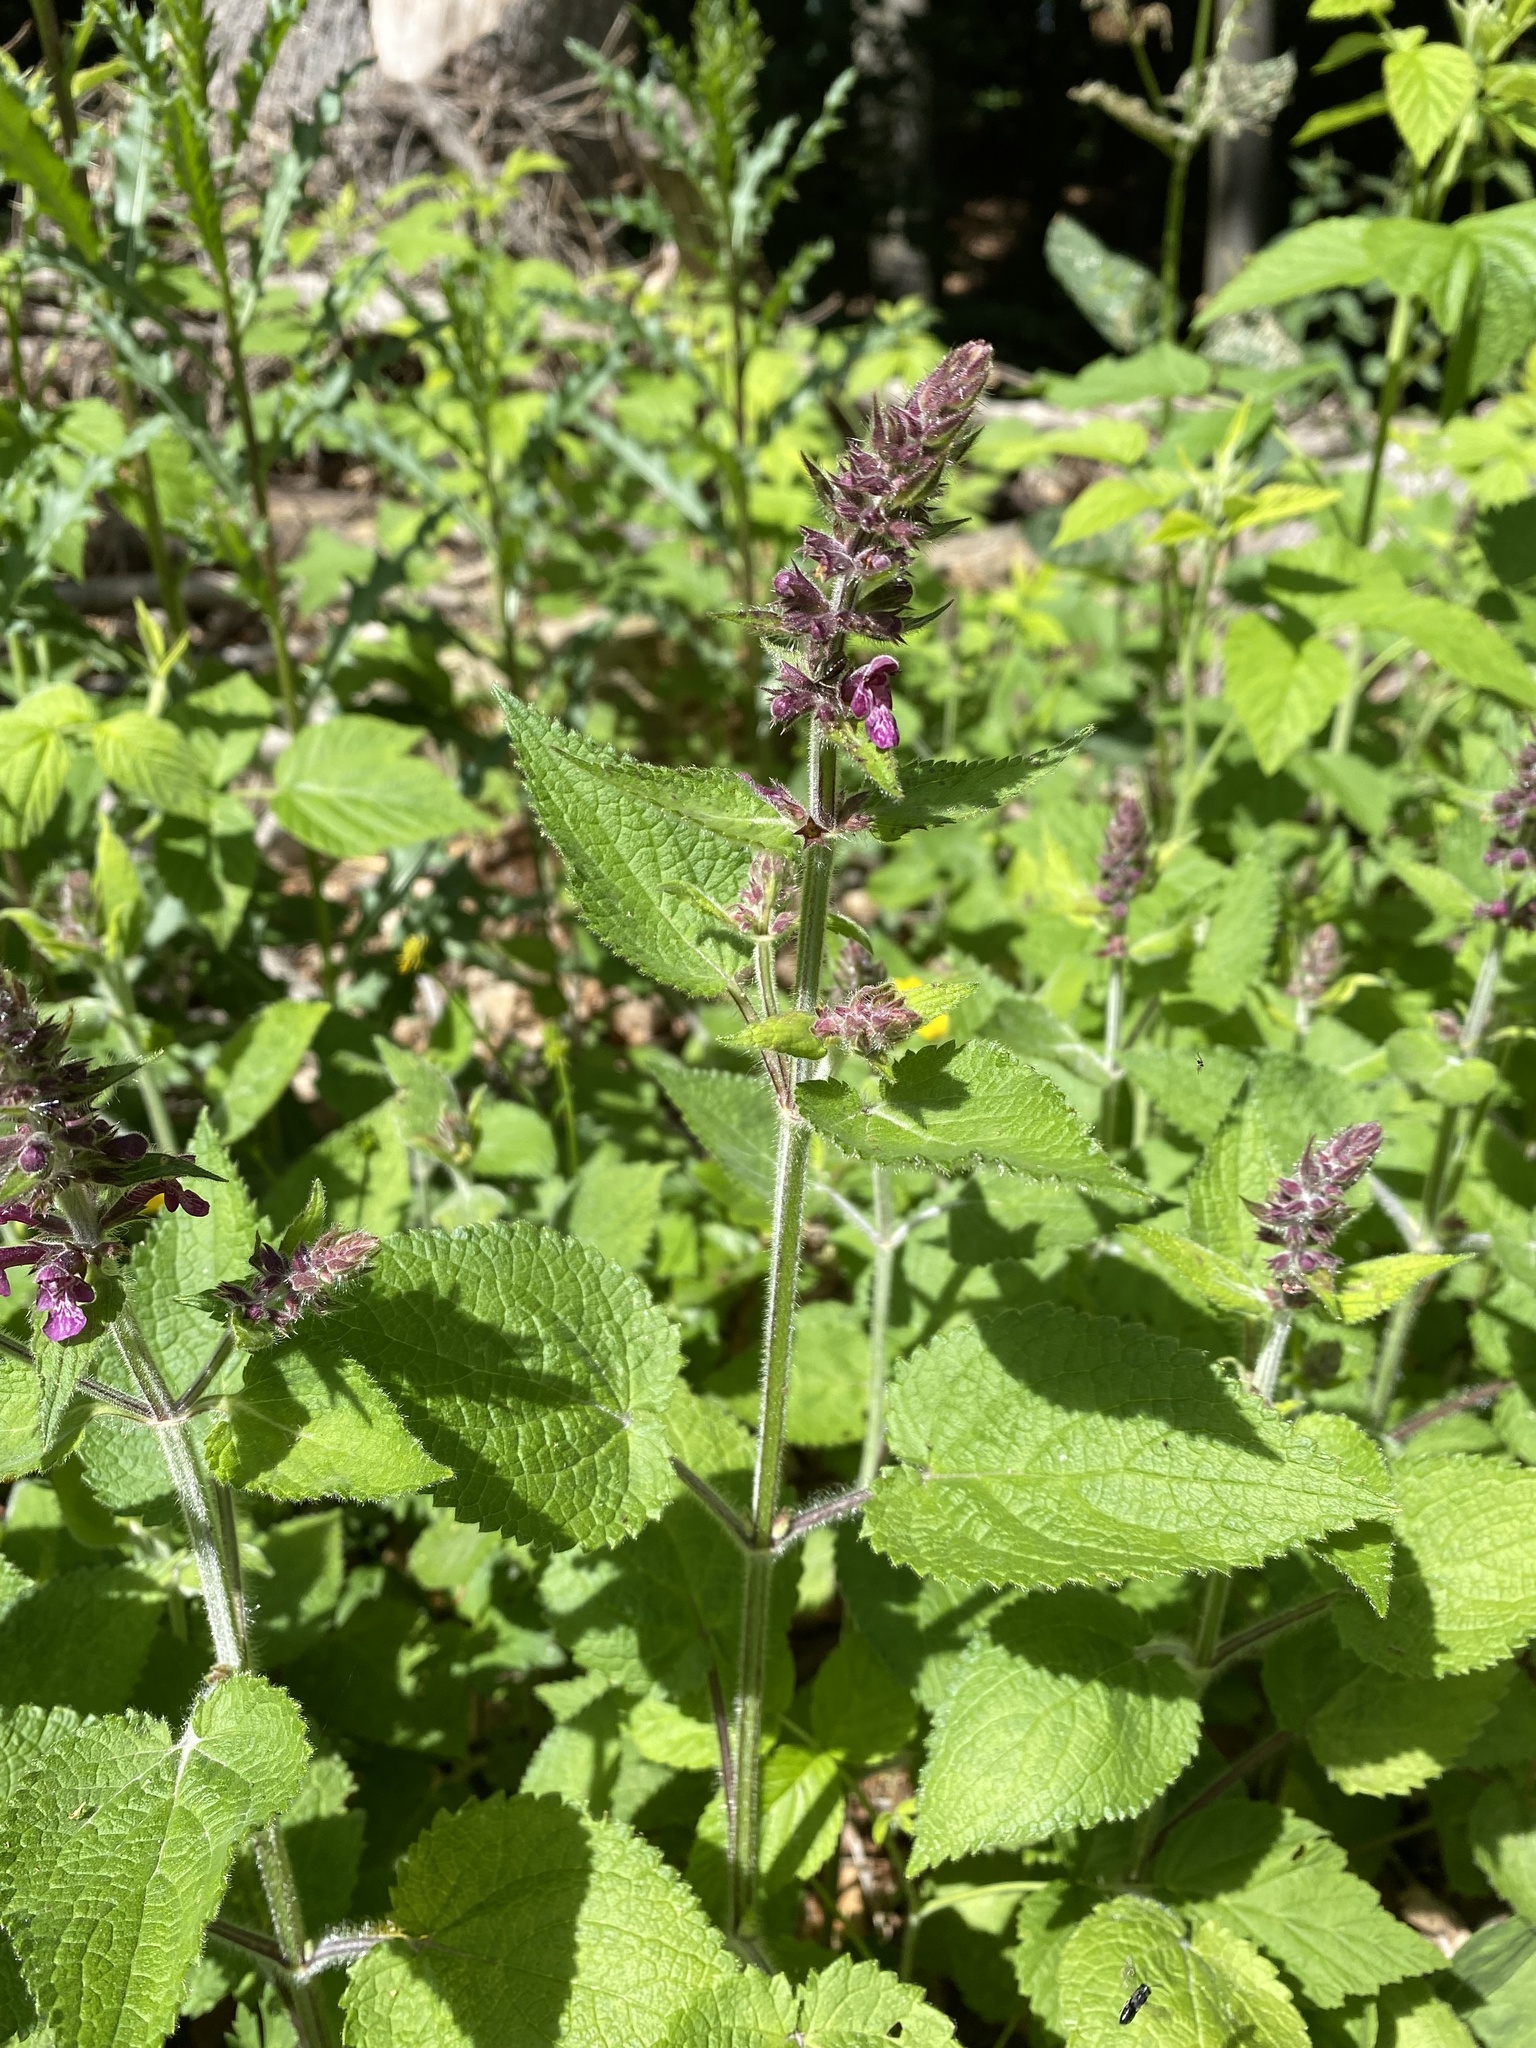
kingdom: Plantae
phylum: Tracheophyta
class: Magnoliopsida
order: Lamiales
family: Lamiaceae
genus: Stachys
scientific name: Stachys sylvatica
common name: Hedge woundwort
